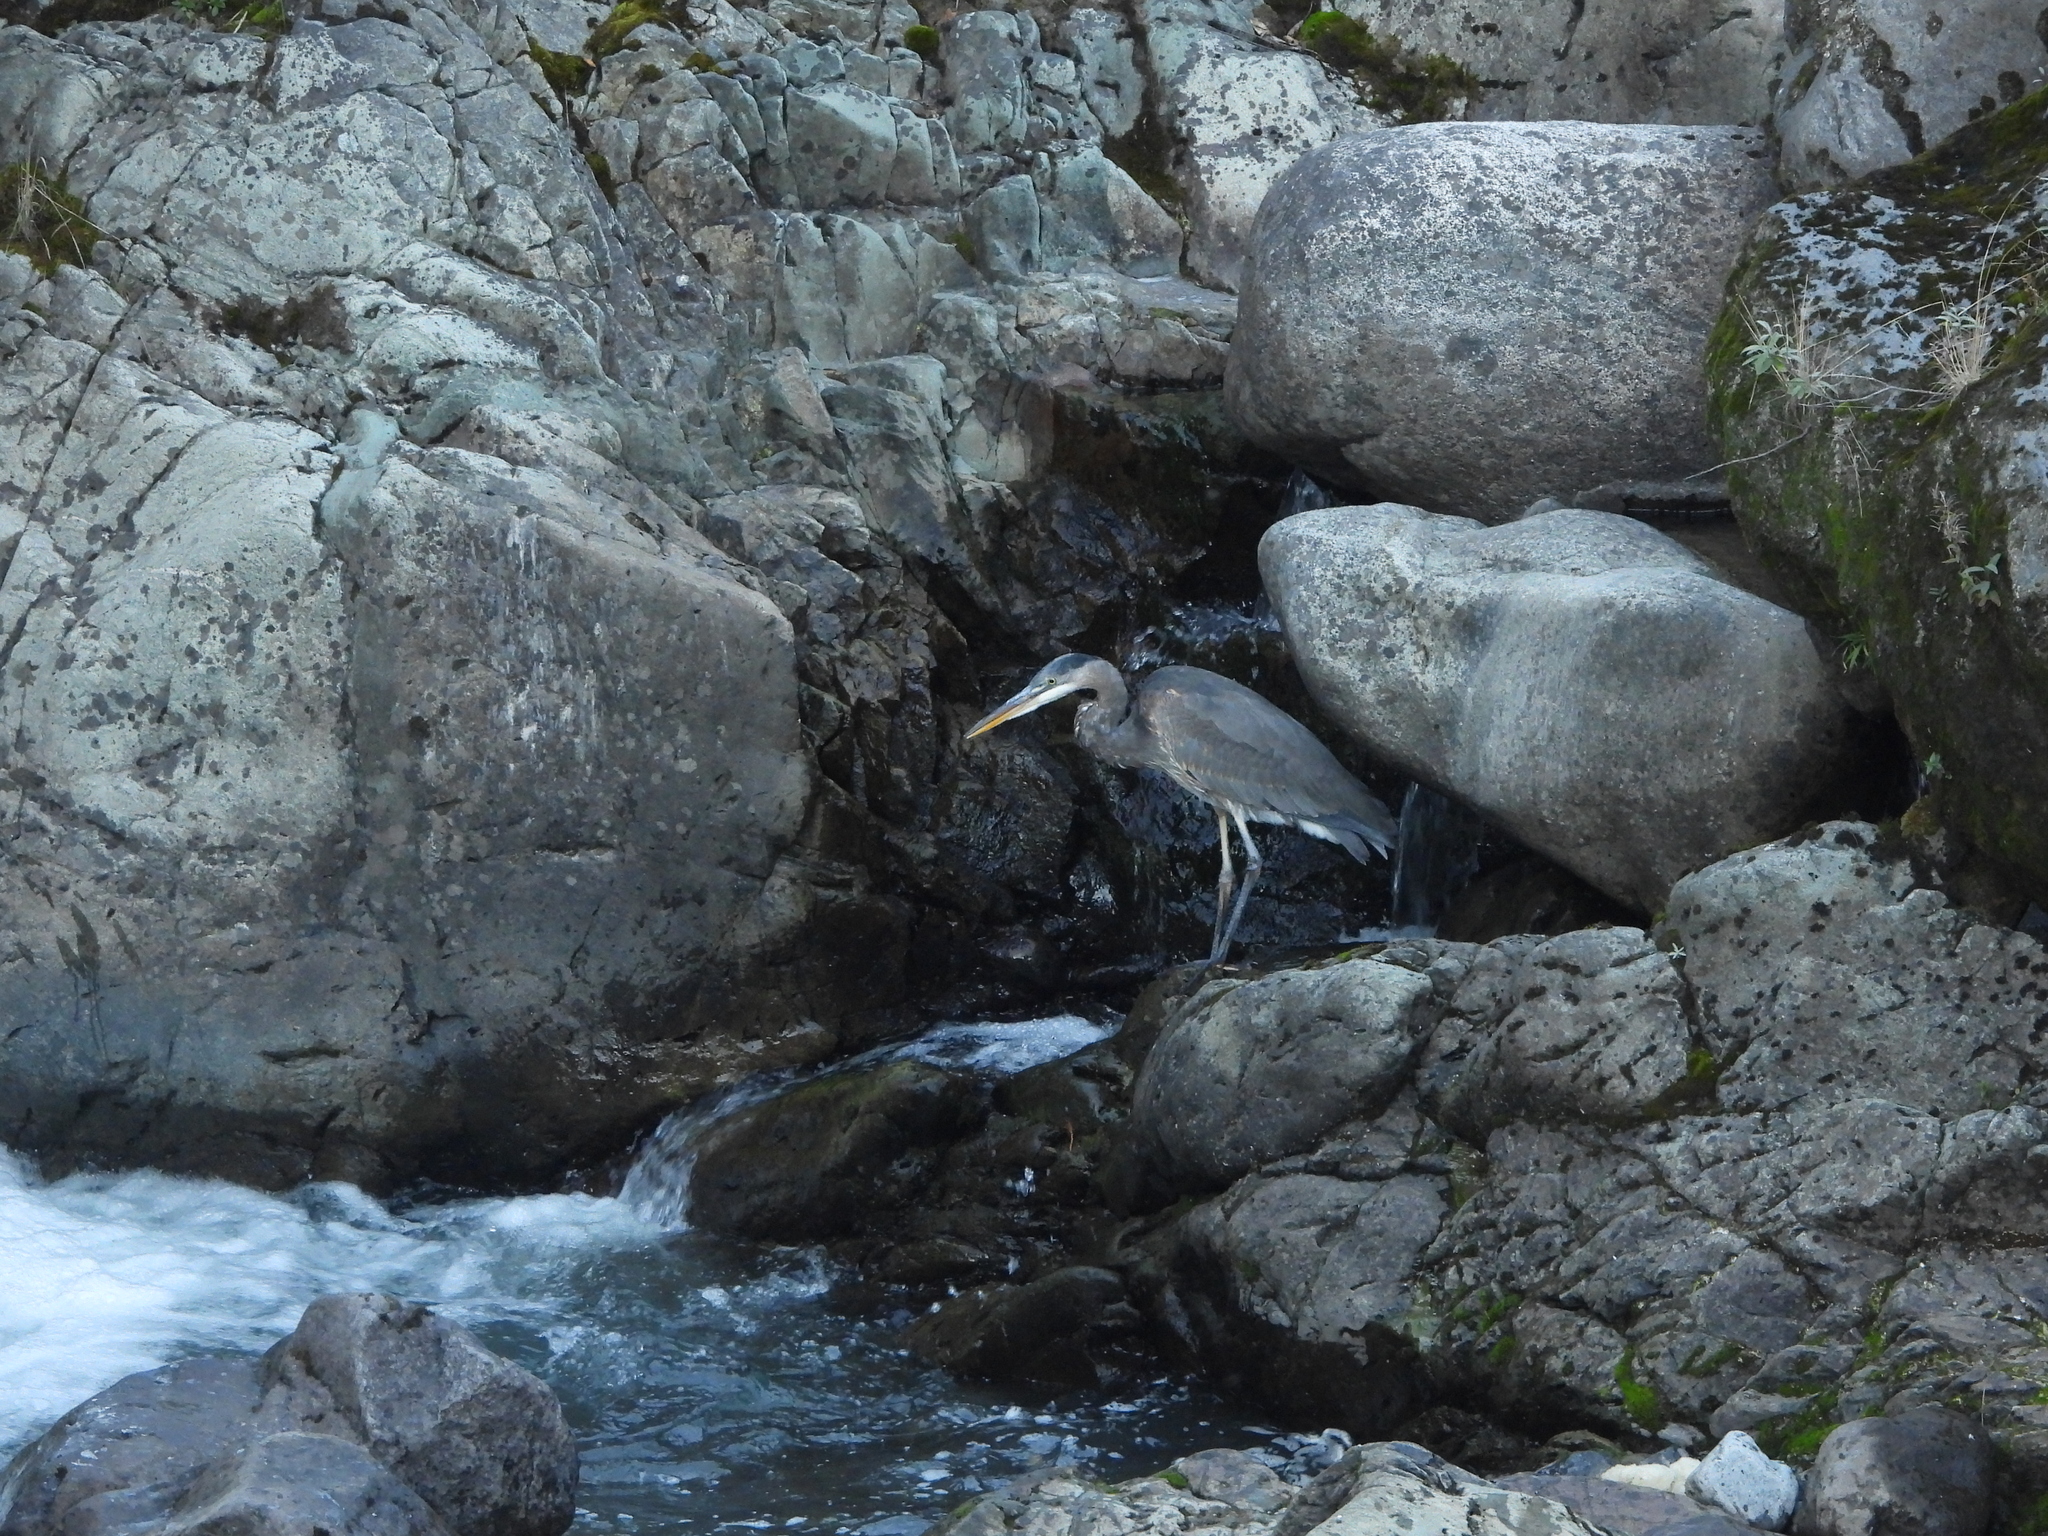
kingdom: Animalia
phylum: Chordata
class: Aves
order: Pelecaniformes
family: Ardeidae
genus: Ardea
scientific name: Ardea herodias
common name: Great blue heron
